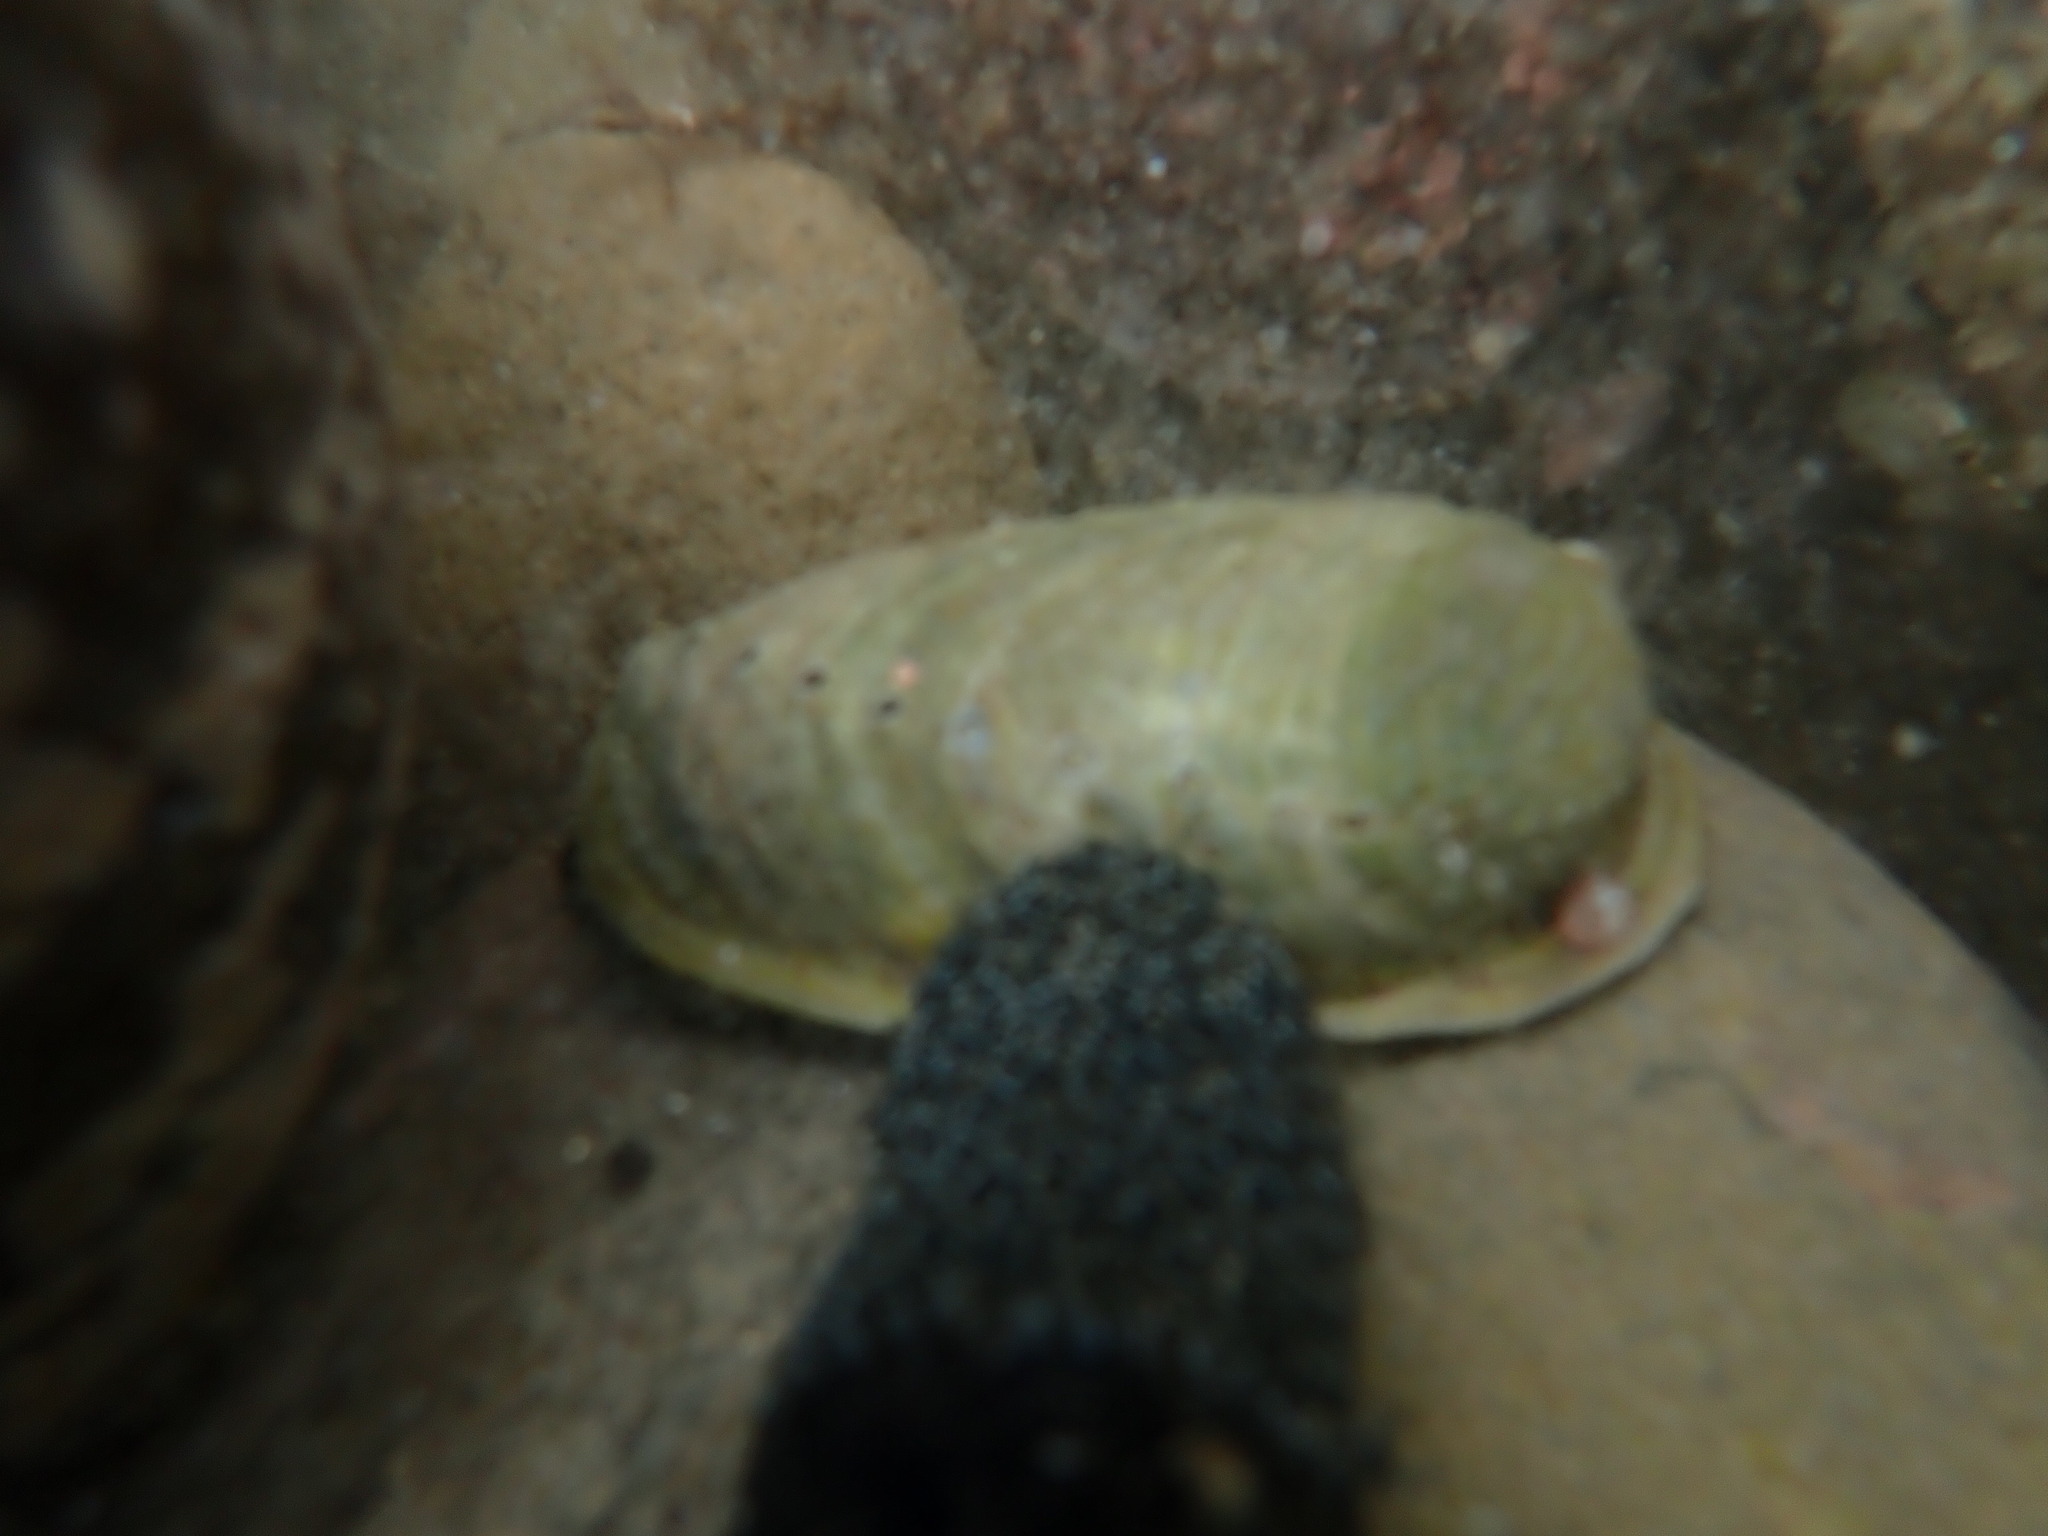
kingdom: Animalia
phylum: Mollusca
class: Gastropoda
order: Lepetellida
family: Haliotidae
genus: Haliotis
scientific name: Haliotis iris
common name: Abalone
